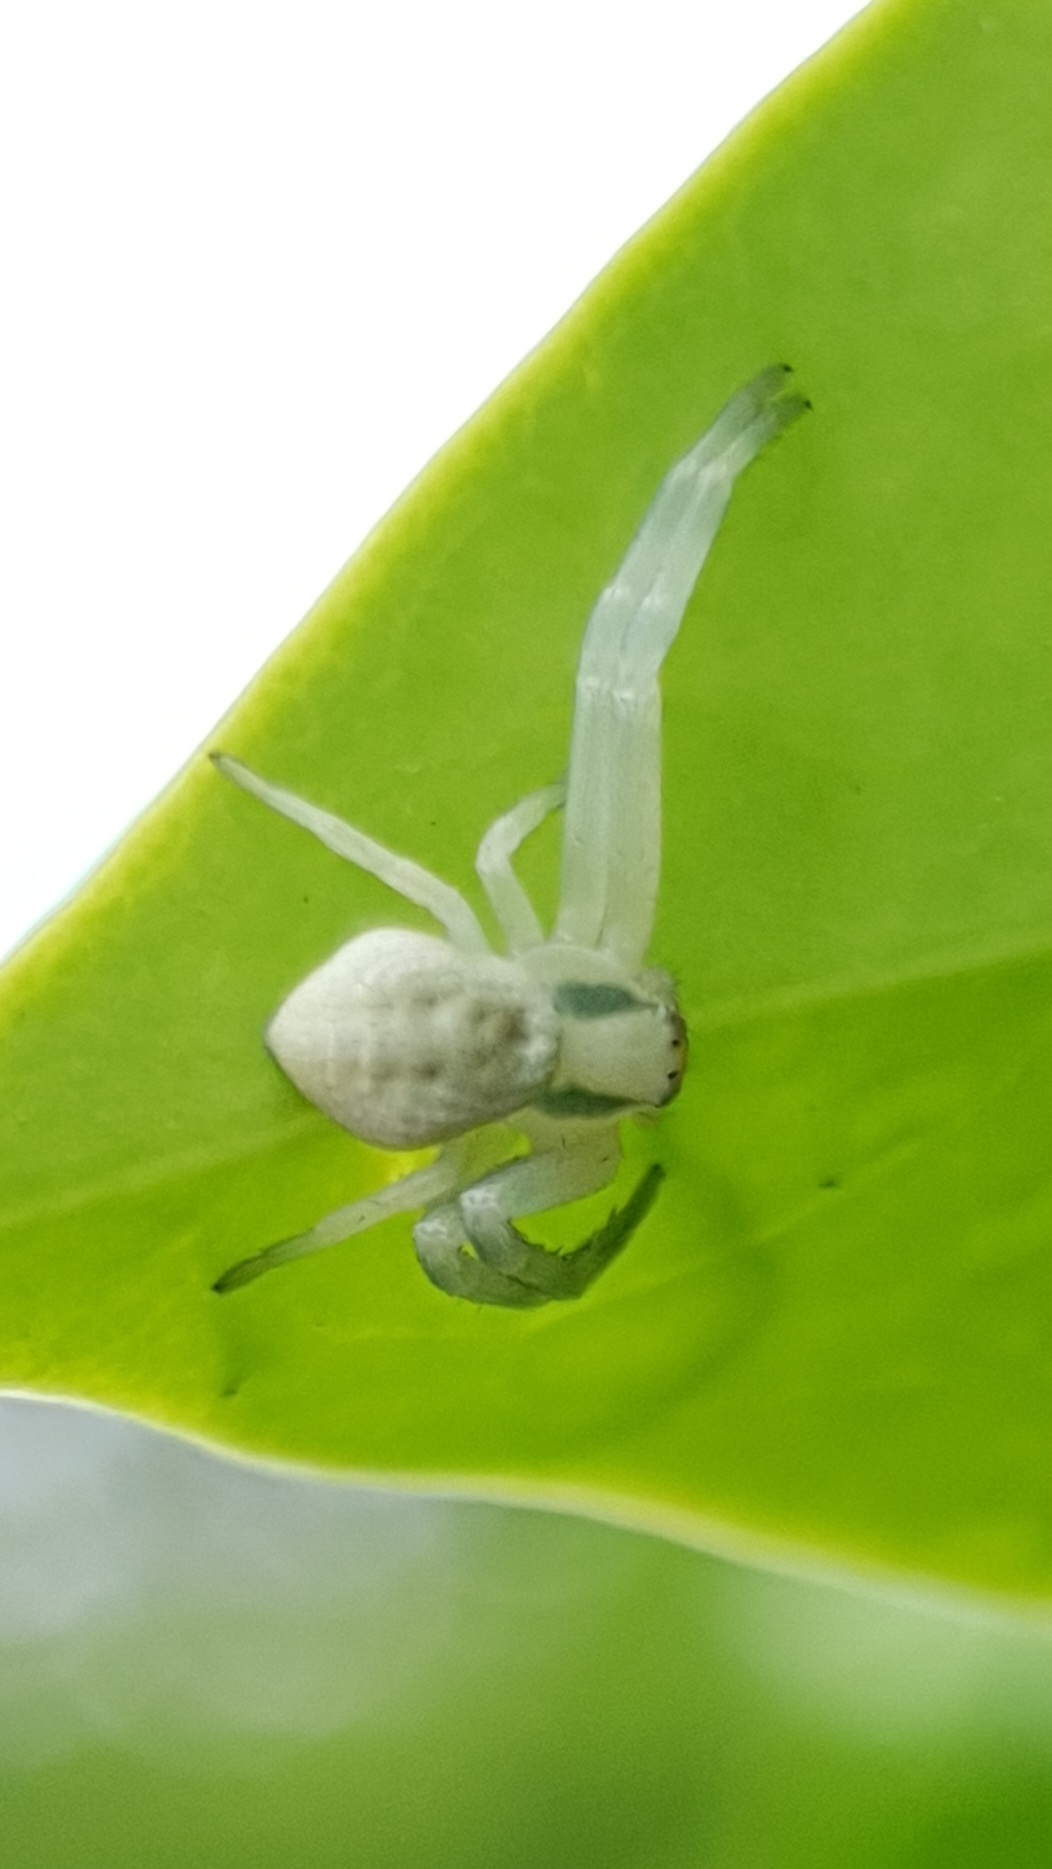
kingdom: Animalia
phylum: Arthropoda
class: Arachnida
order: Araneae
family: Thomisidae
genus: Misumena
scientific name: Misumena vatia
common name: Goldenrod crab spider
